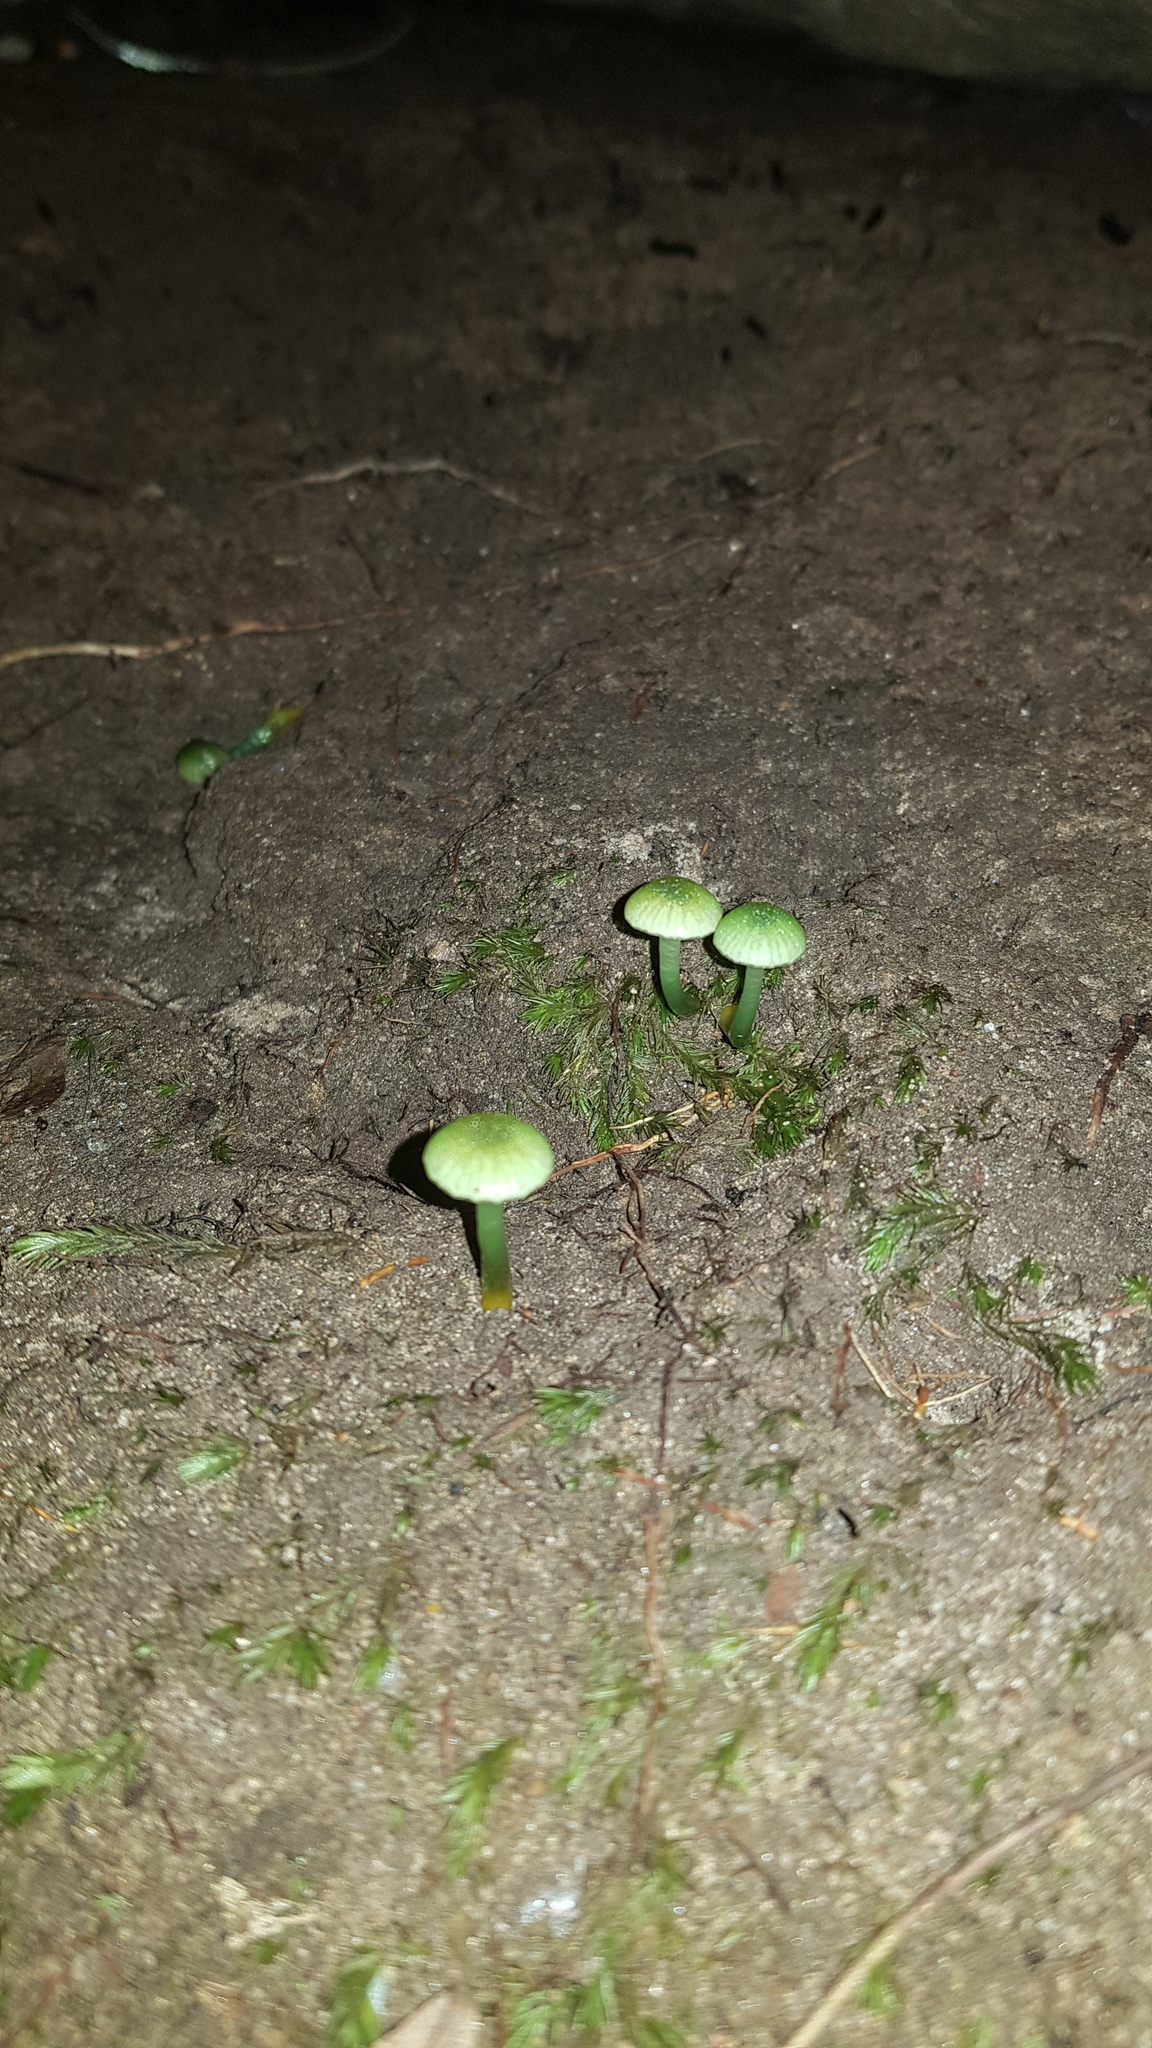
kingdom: Fungi
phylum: Basidiomycota
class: Agaricomycetes
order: Agaricales
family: Hygrophoraceae
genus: Gliophorus
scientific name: Gliophorus viridis
